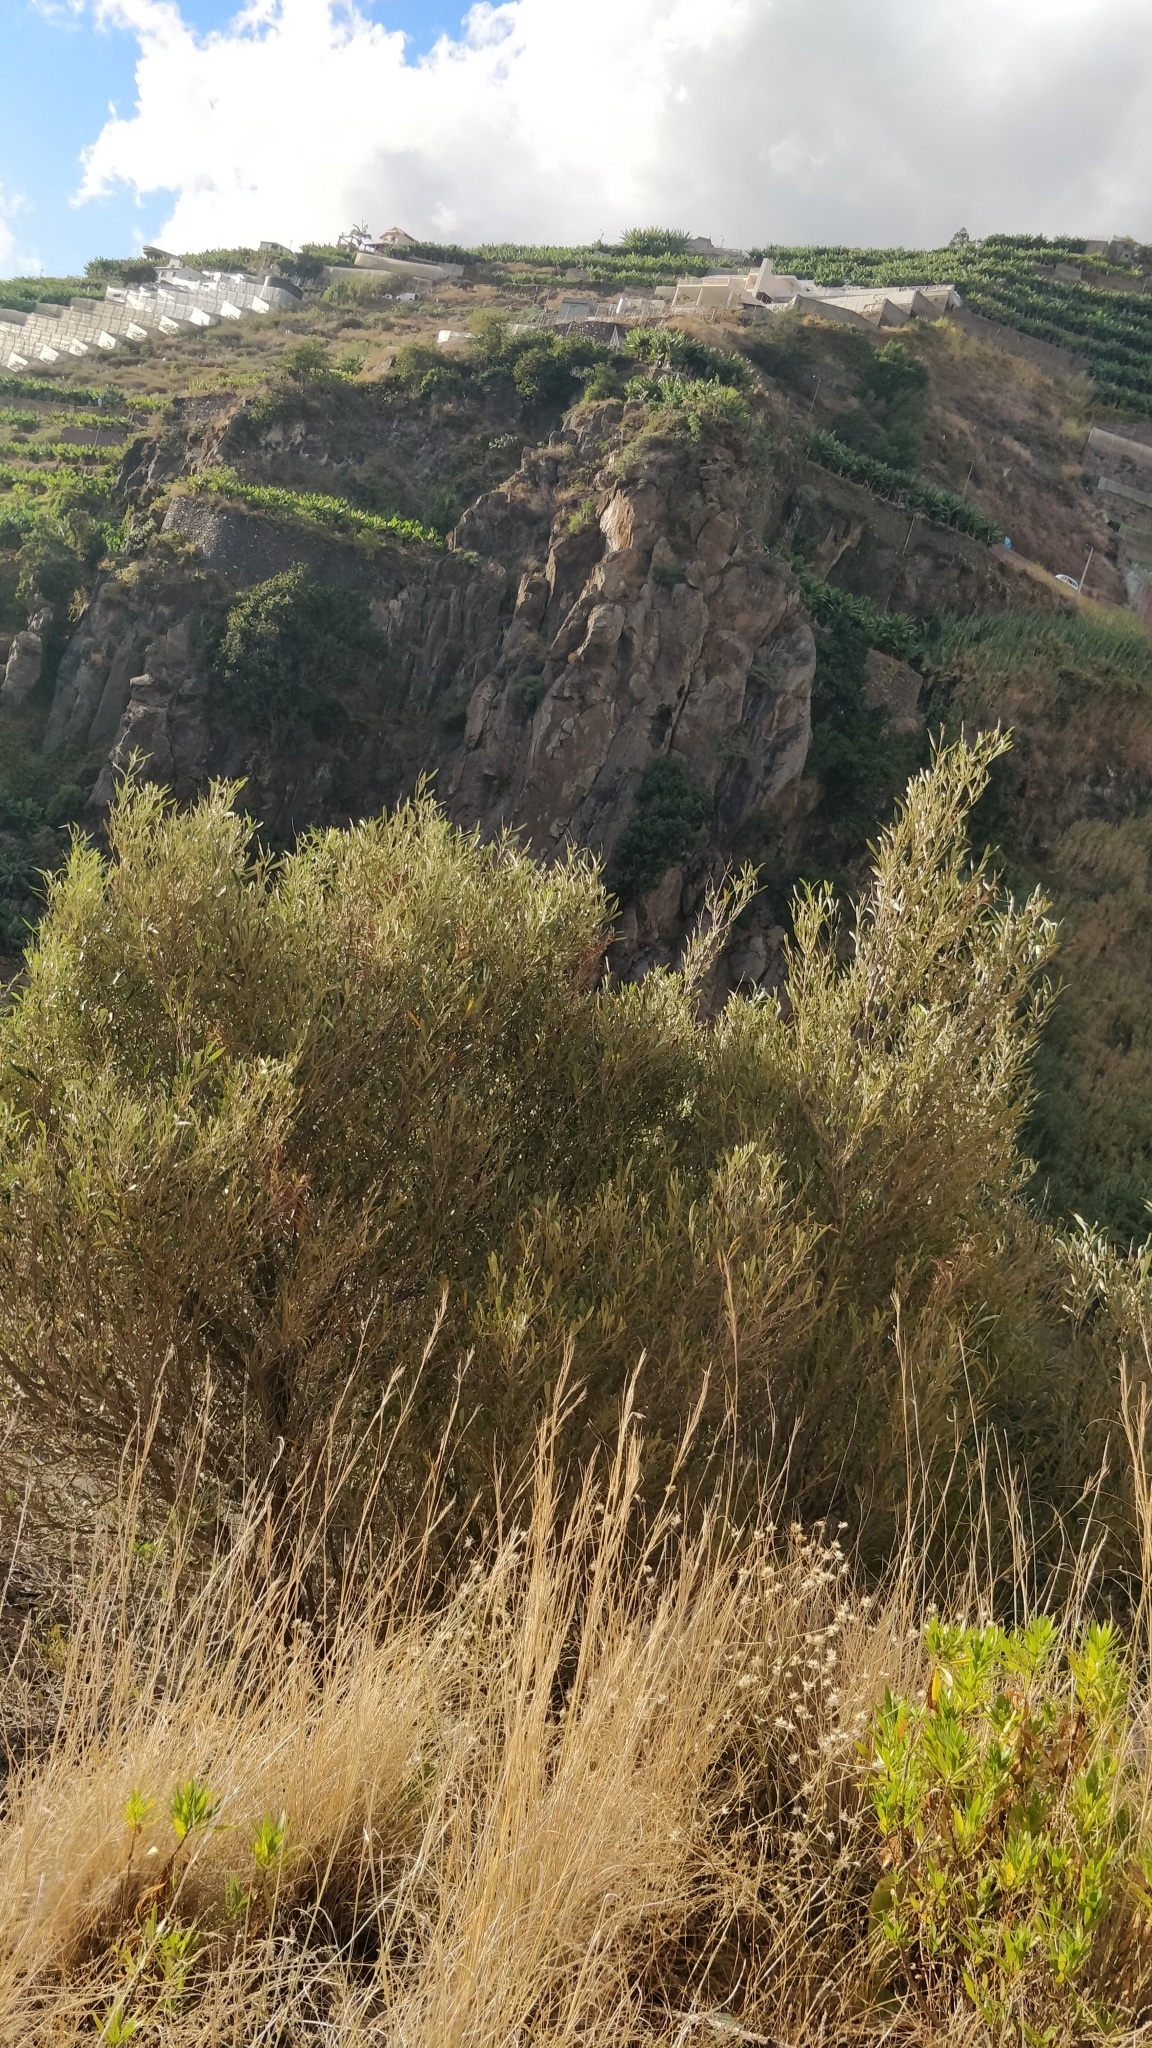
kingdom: Plantae
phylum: Tracheophyta
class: Magnoliopsida
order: Lamiales
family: Oleaceae
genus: Olea
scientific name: Olea europaea
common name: Olive
